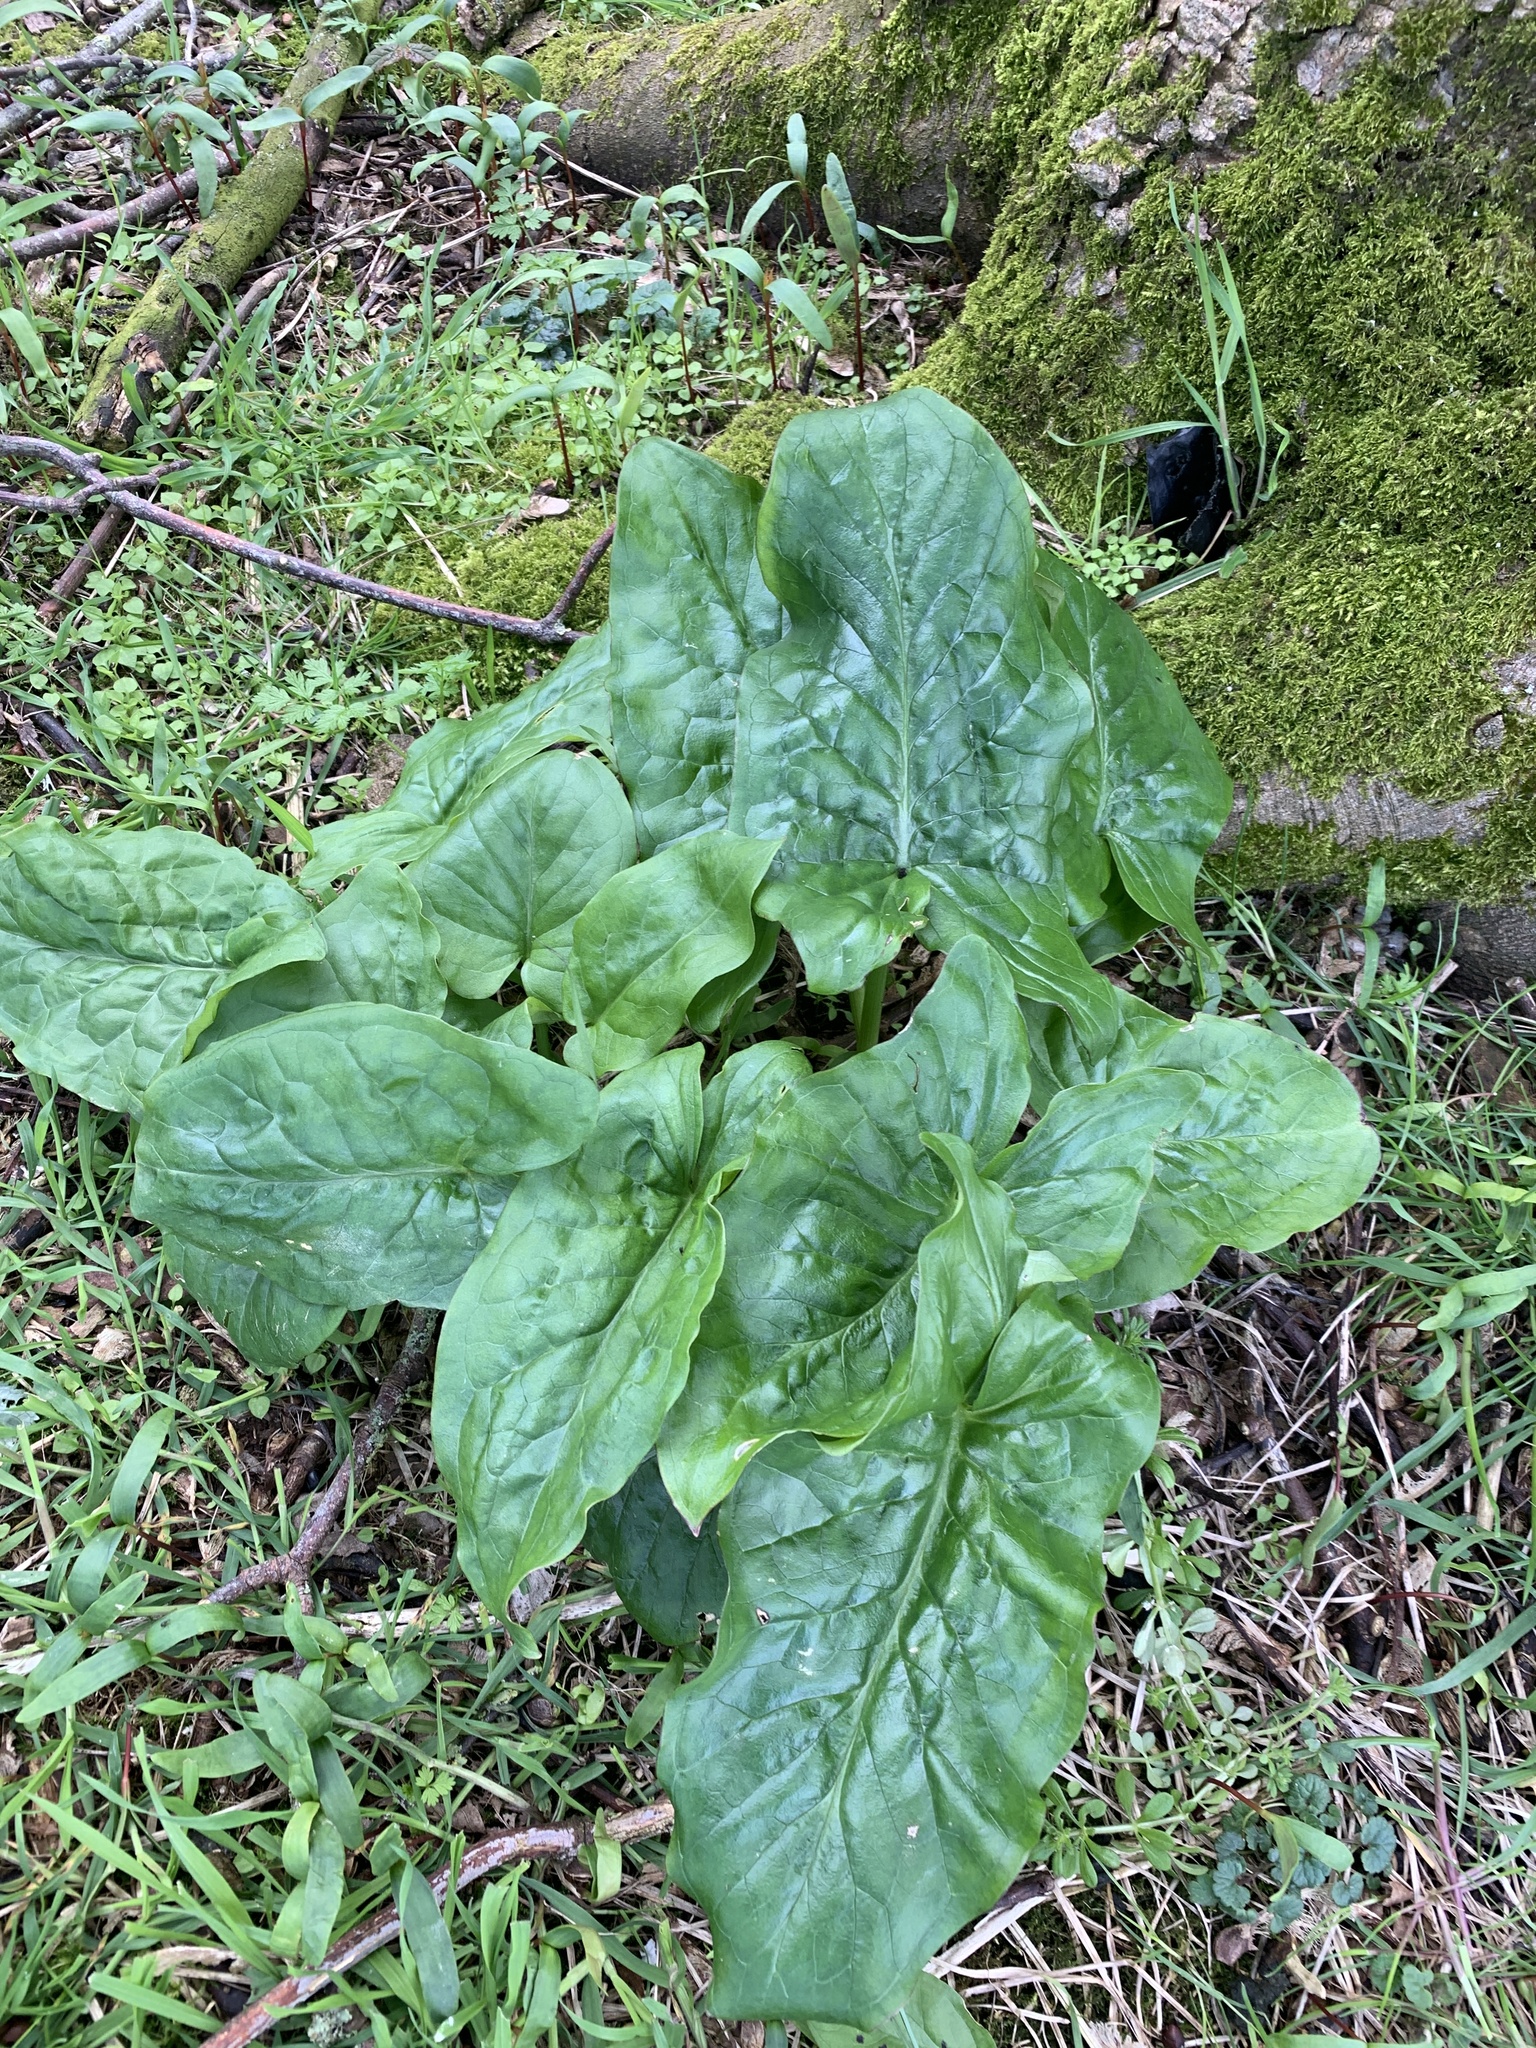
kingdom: Plantae
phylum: Tracheophyta
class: Liliopsida
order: Alismatales
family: Araceae
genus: Arum
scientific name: Arum maculatum
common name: Lords-and-ladies
